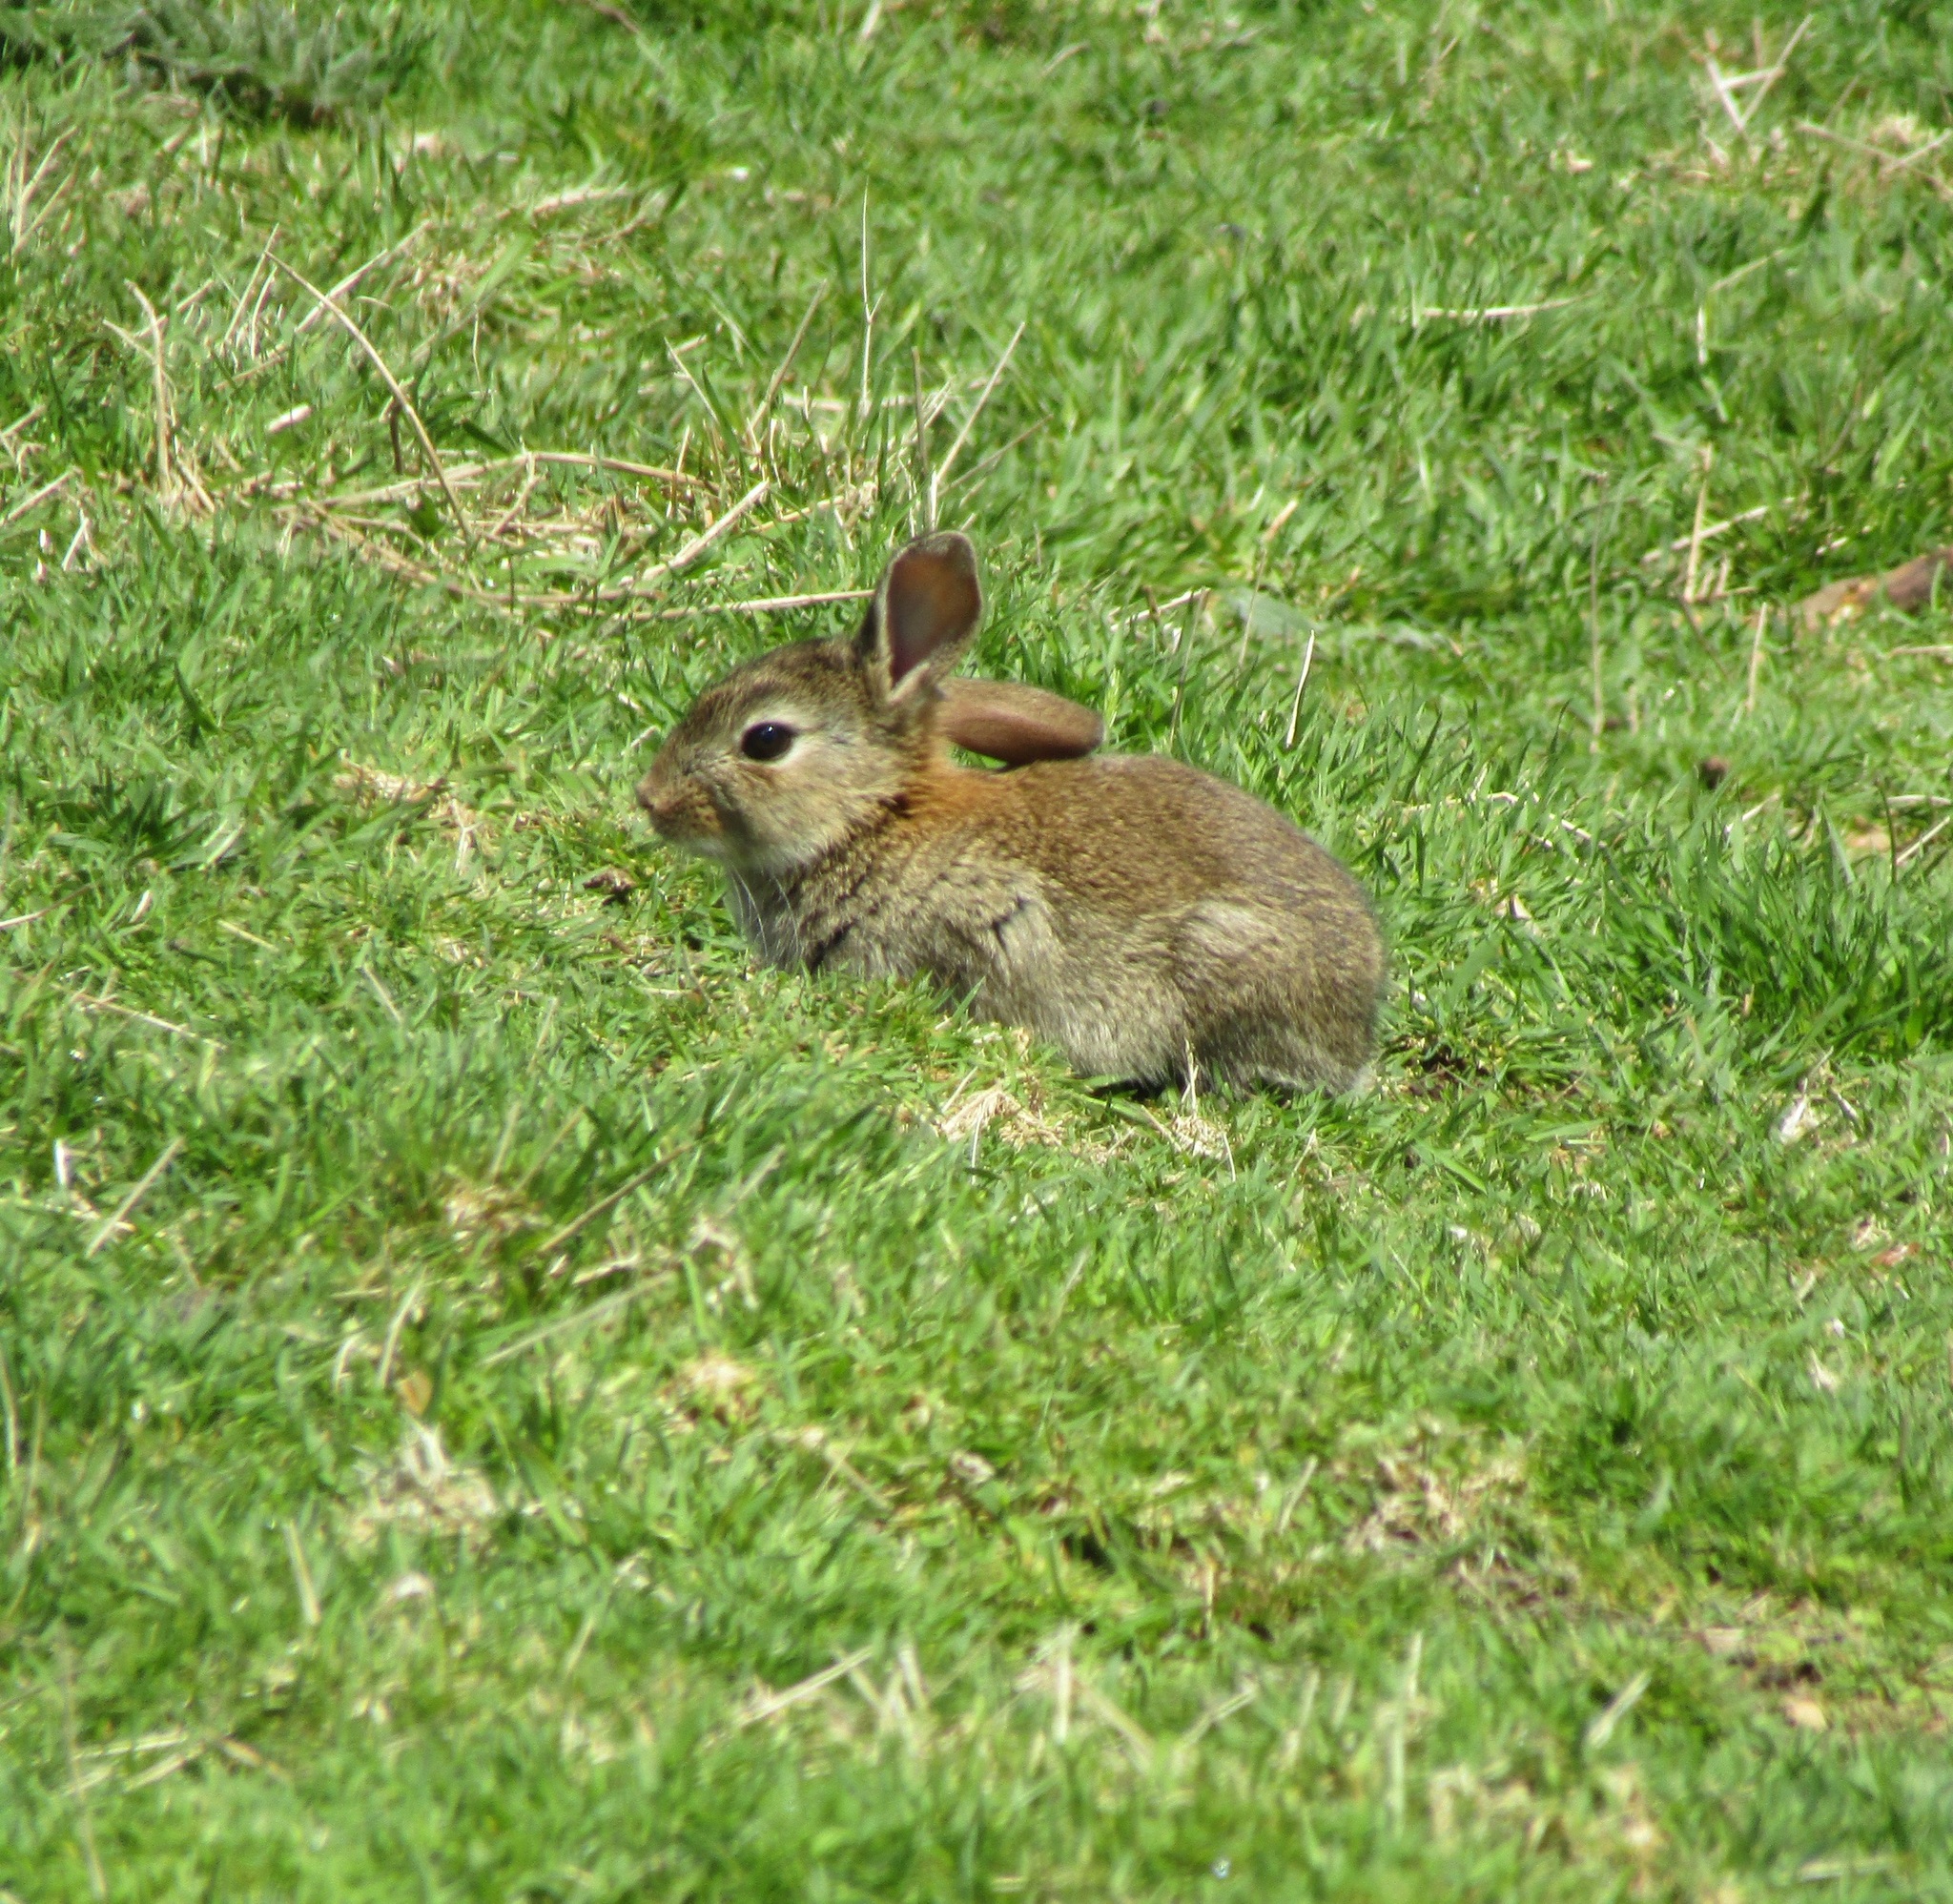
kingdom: Animalia
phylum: Chordata
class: Mammalia
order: Lagomorpha
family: Leporidae
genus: Oryctolagus
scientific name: Oryctolagus cuniculus
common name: European rabbit
